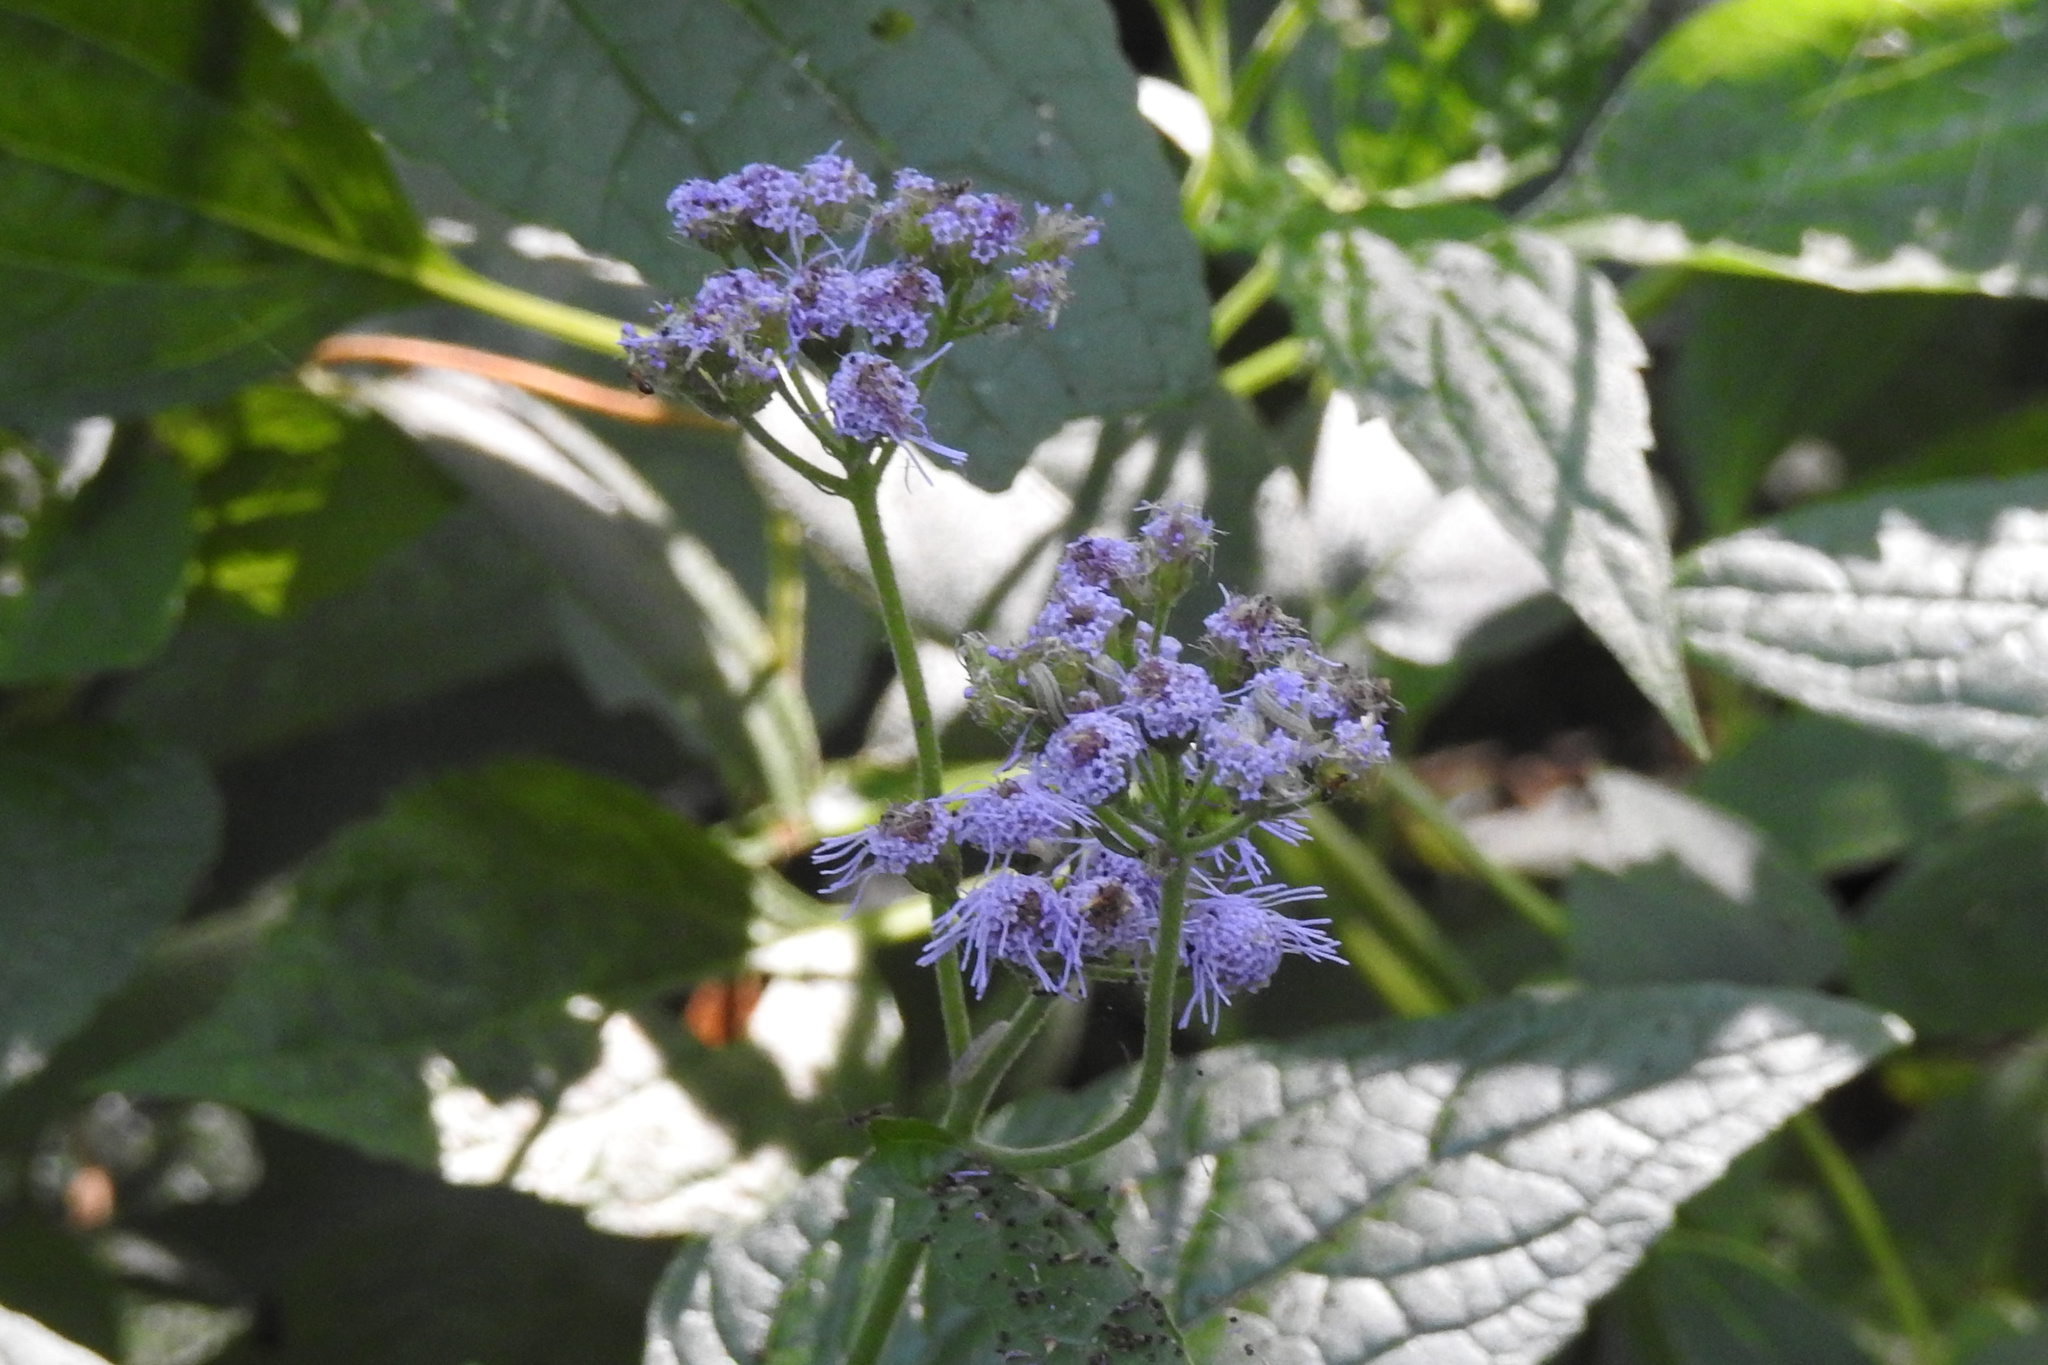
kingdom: Plantae
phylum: Tracheophyta
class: Magnoliopsida
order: Asterales
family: Asteraceae
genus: Conoclinium
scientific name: Conoclinium coelestinum
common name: Blue mistflower
